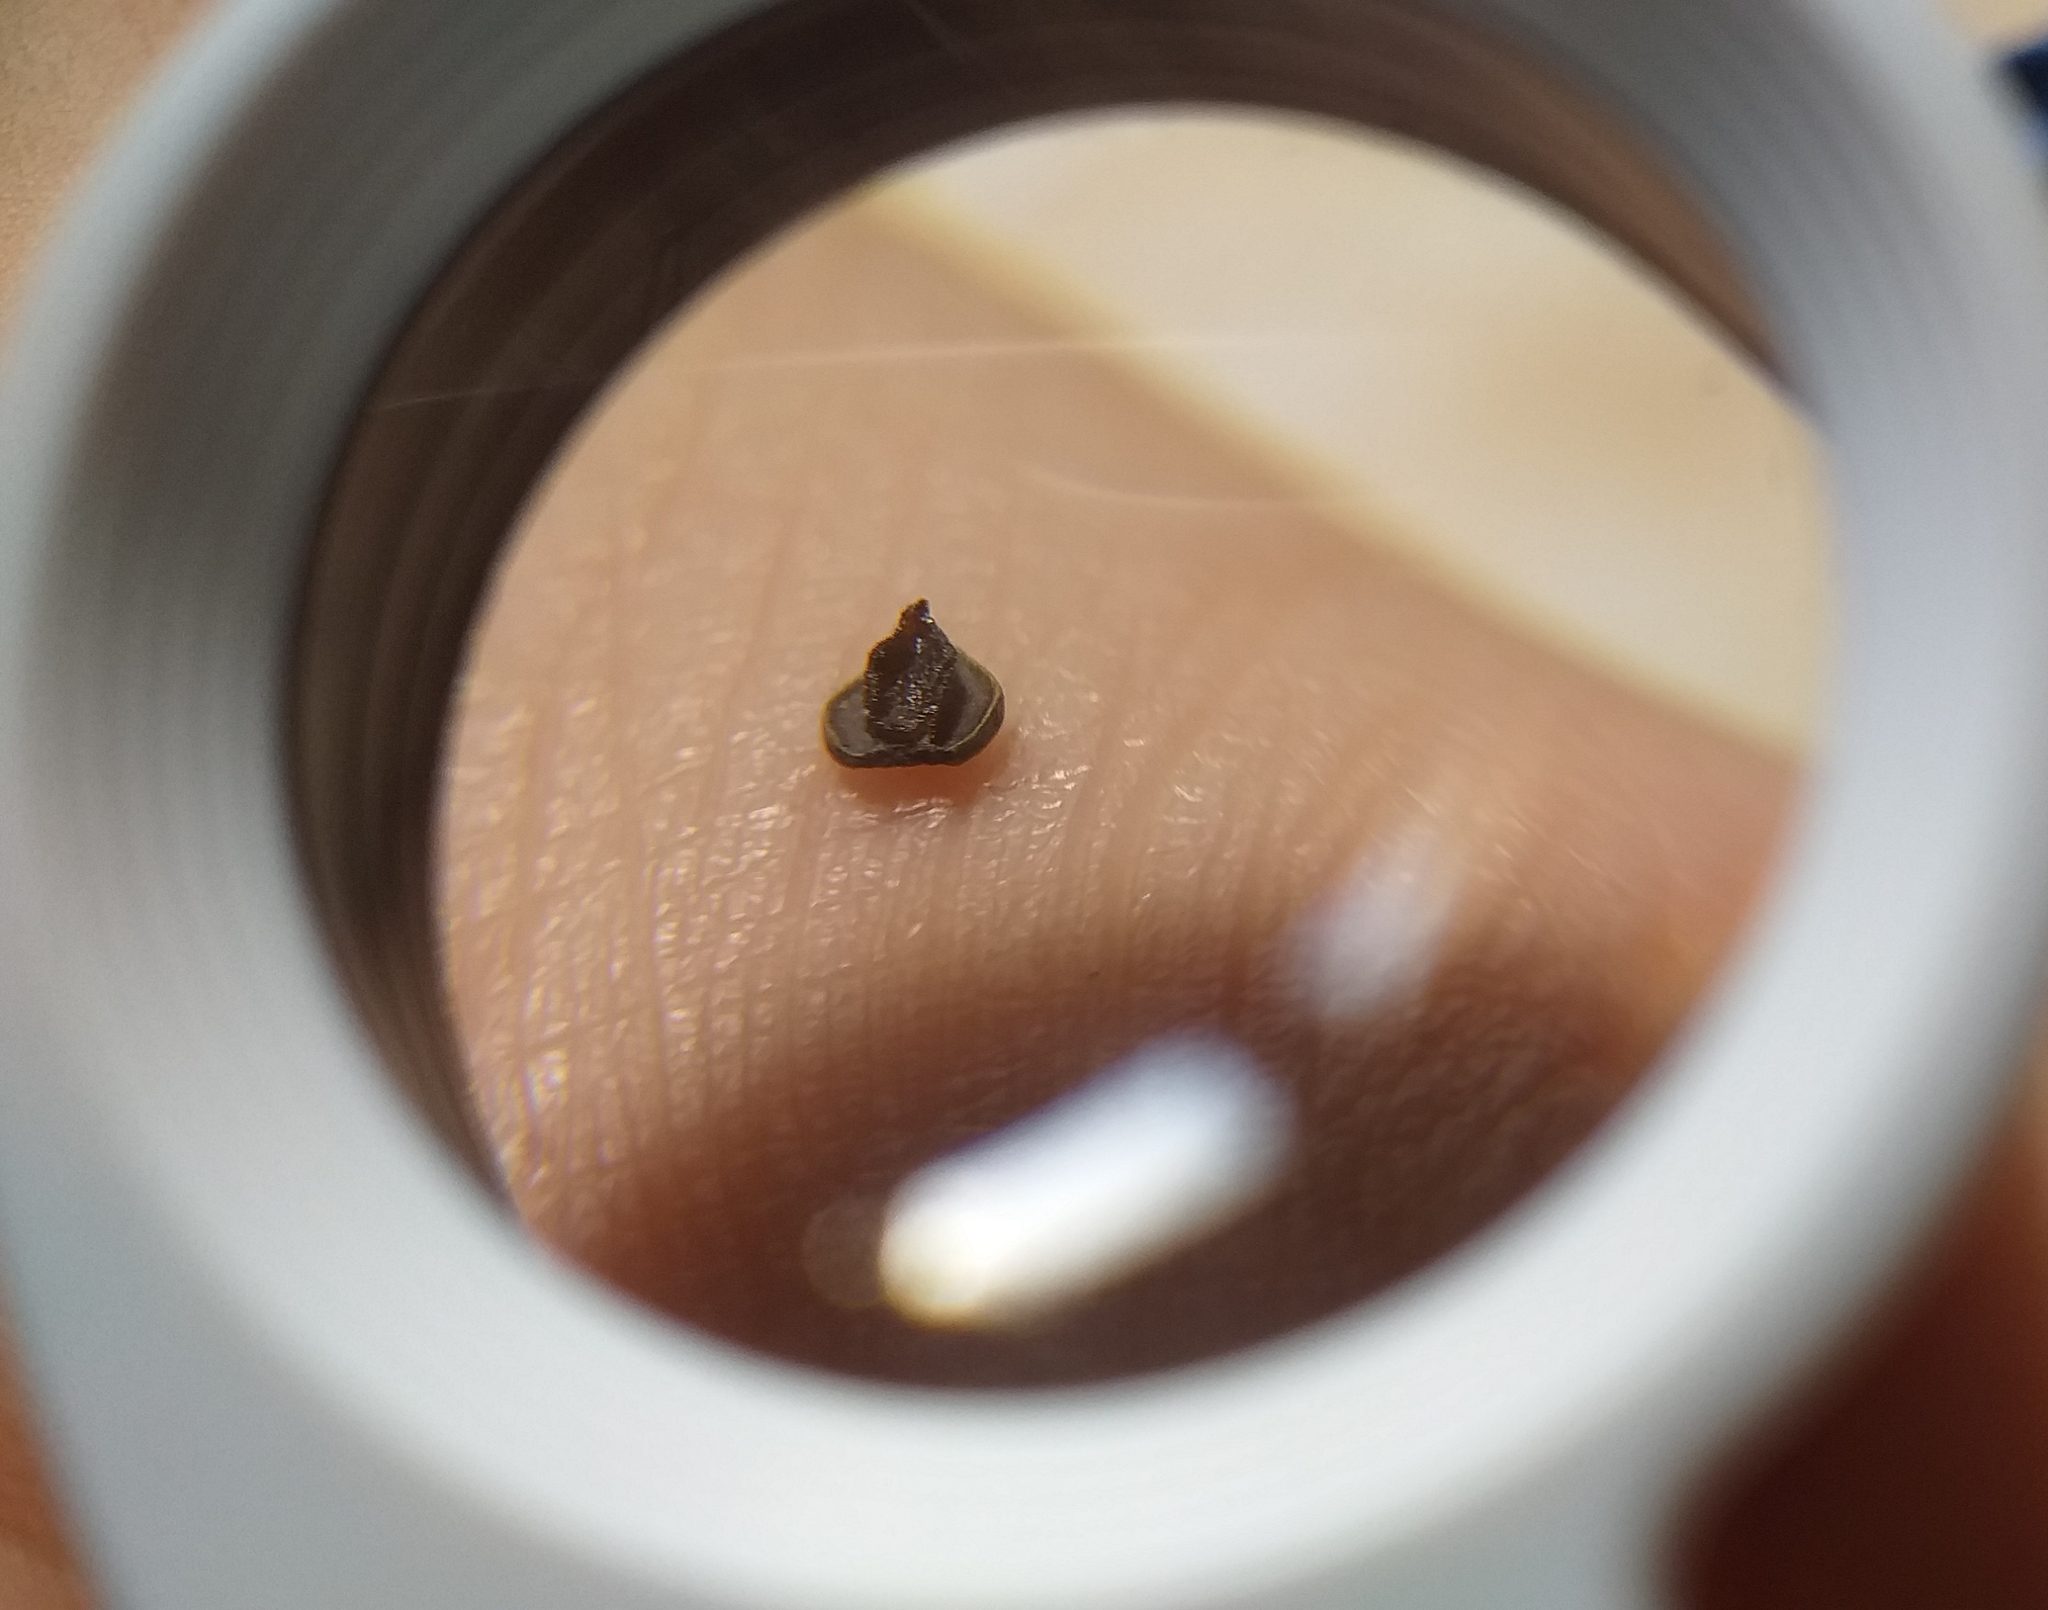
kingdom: Plantae
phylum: Tracheophyta
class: Magnoliopsida
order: Piperales
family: Aristolochiaceae
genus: Aristolochia
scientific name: Aristolochia odoratissima
